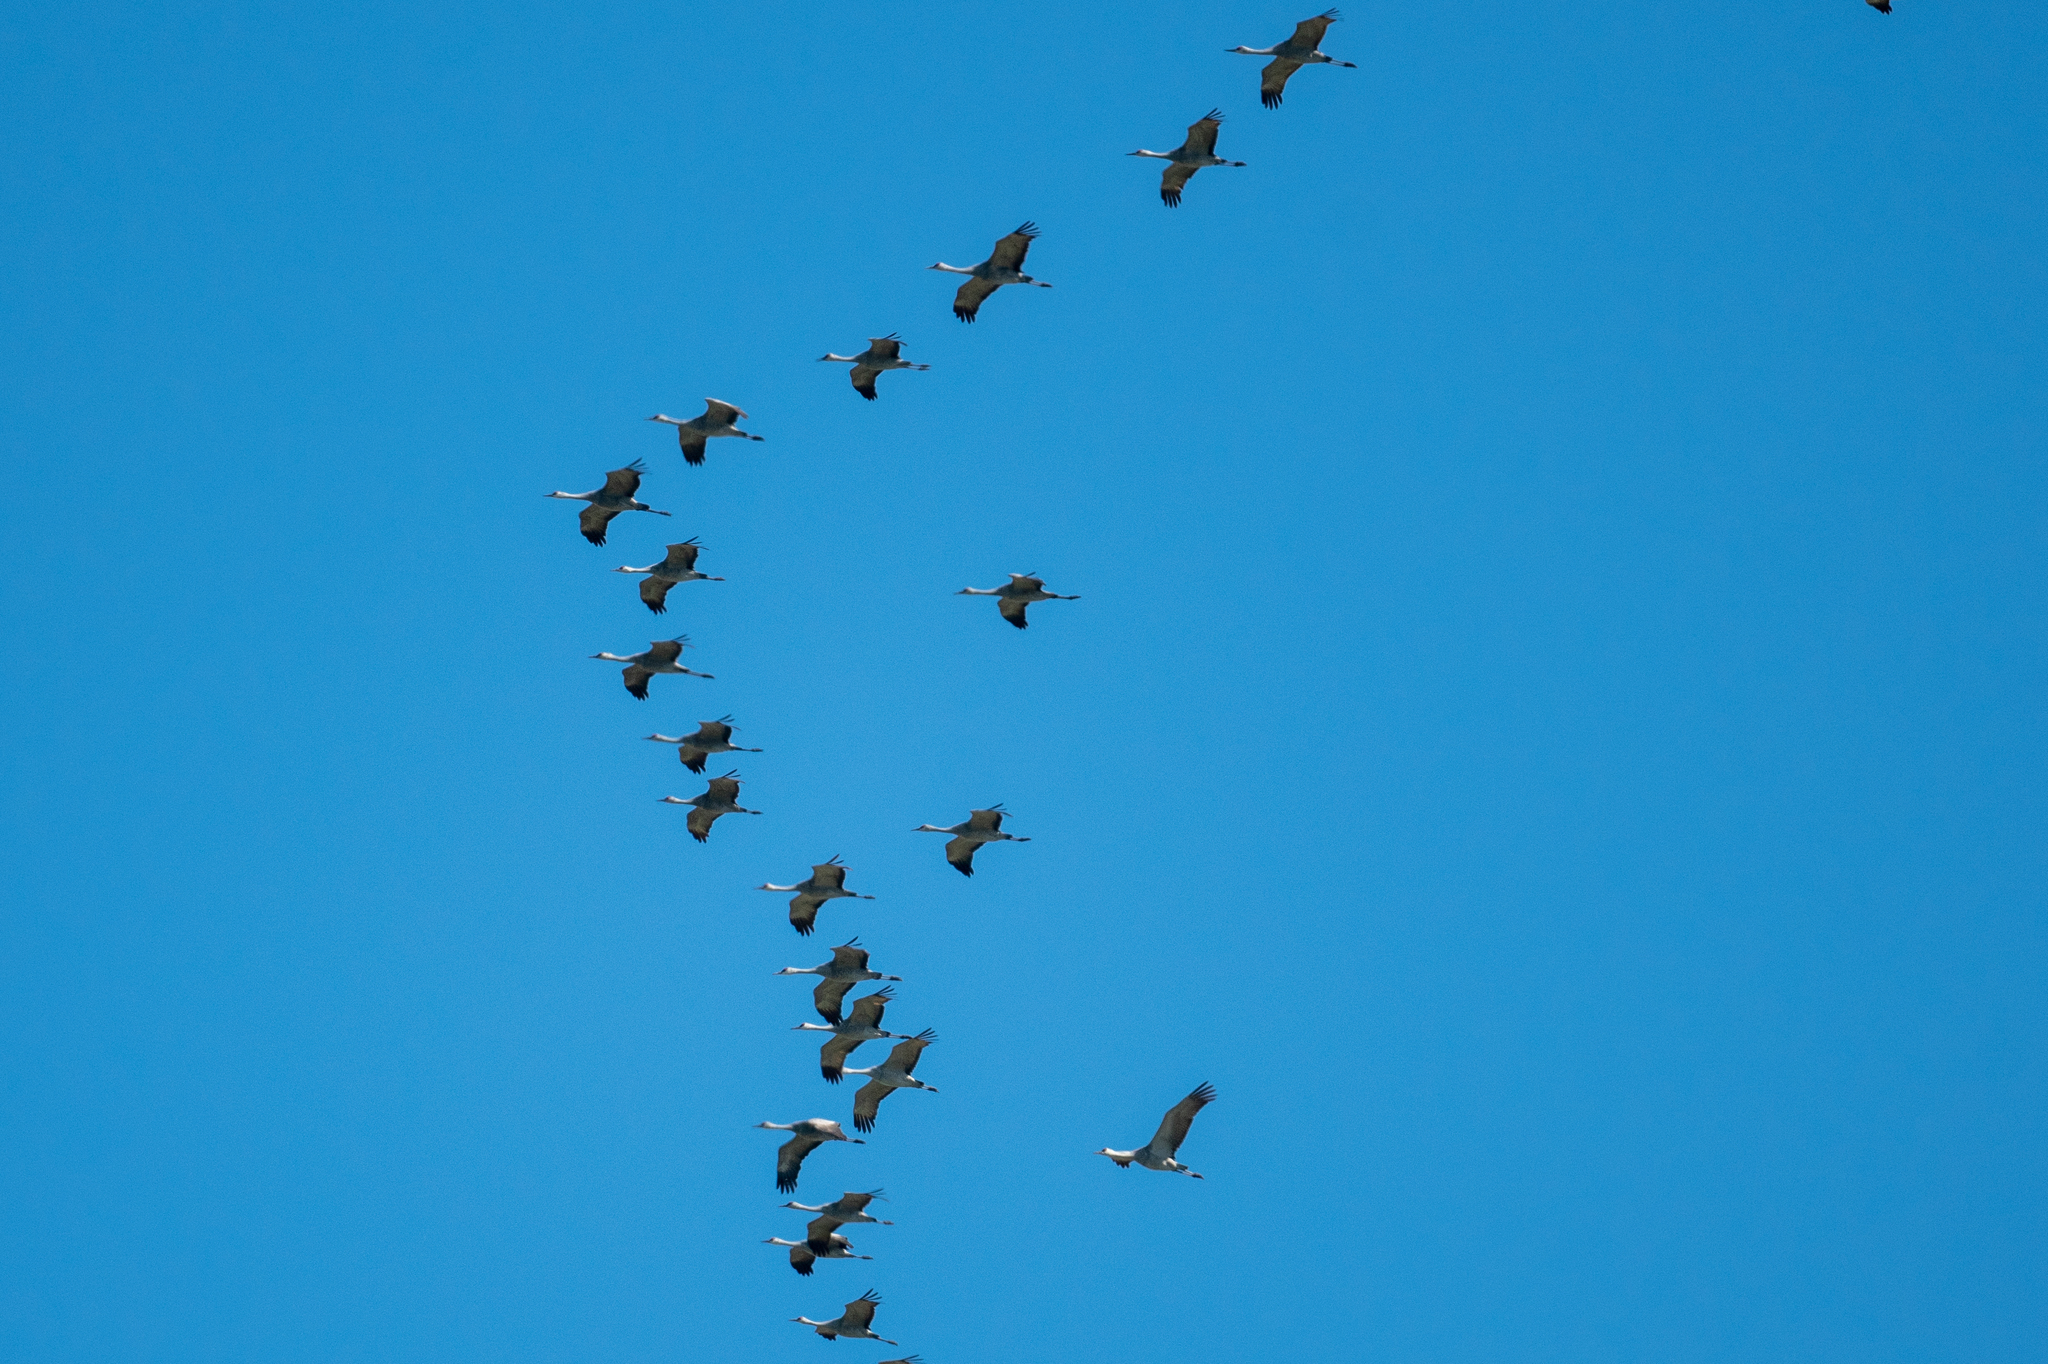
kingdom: Animalia
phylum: Chordata
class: Aves
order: Gruiformes
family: Gruidae
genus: Grus
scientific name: Grus canadensis
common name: Sandhill crane
